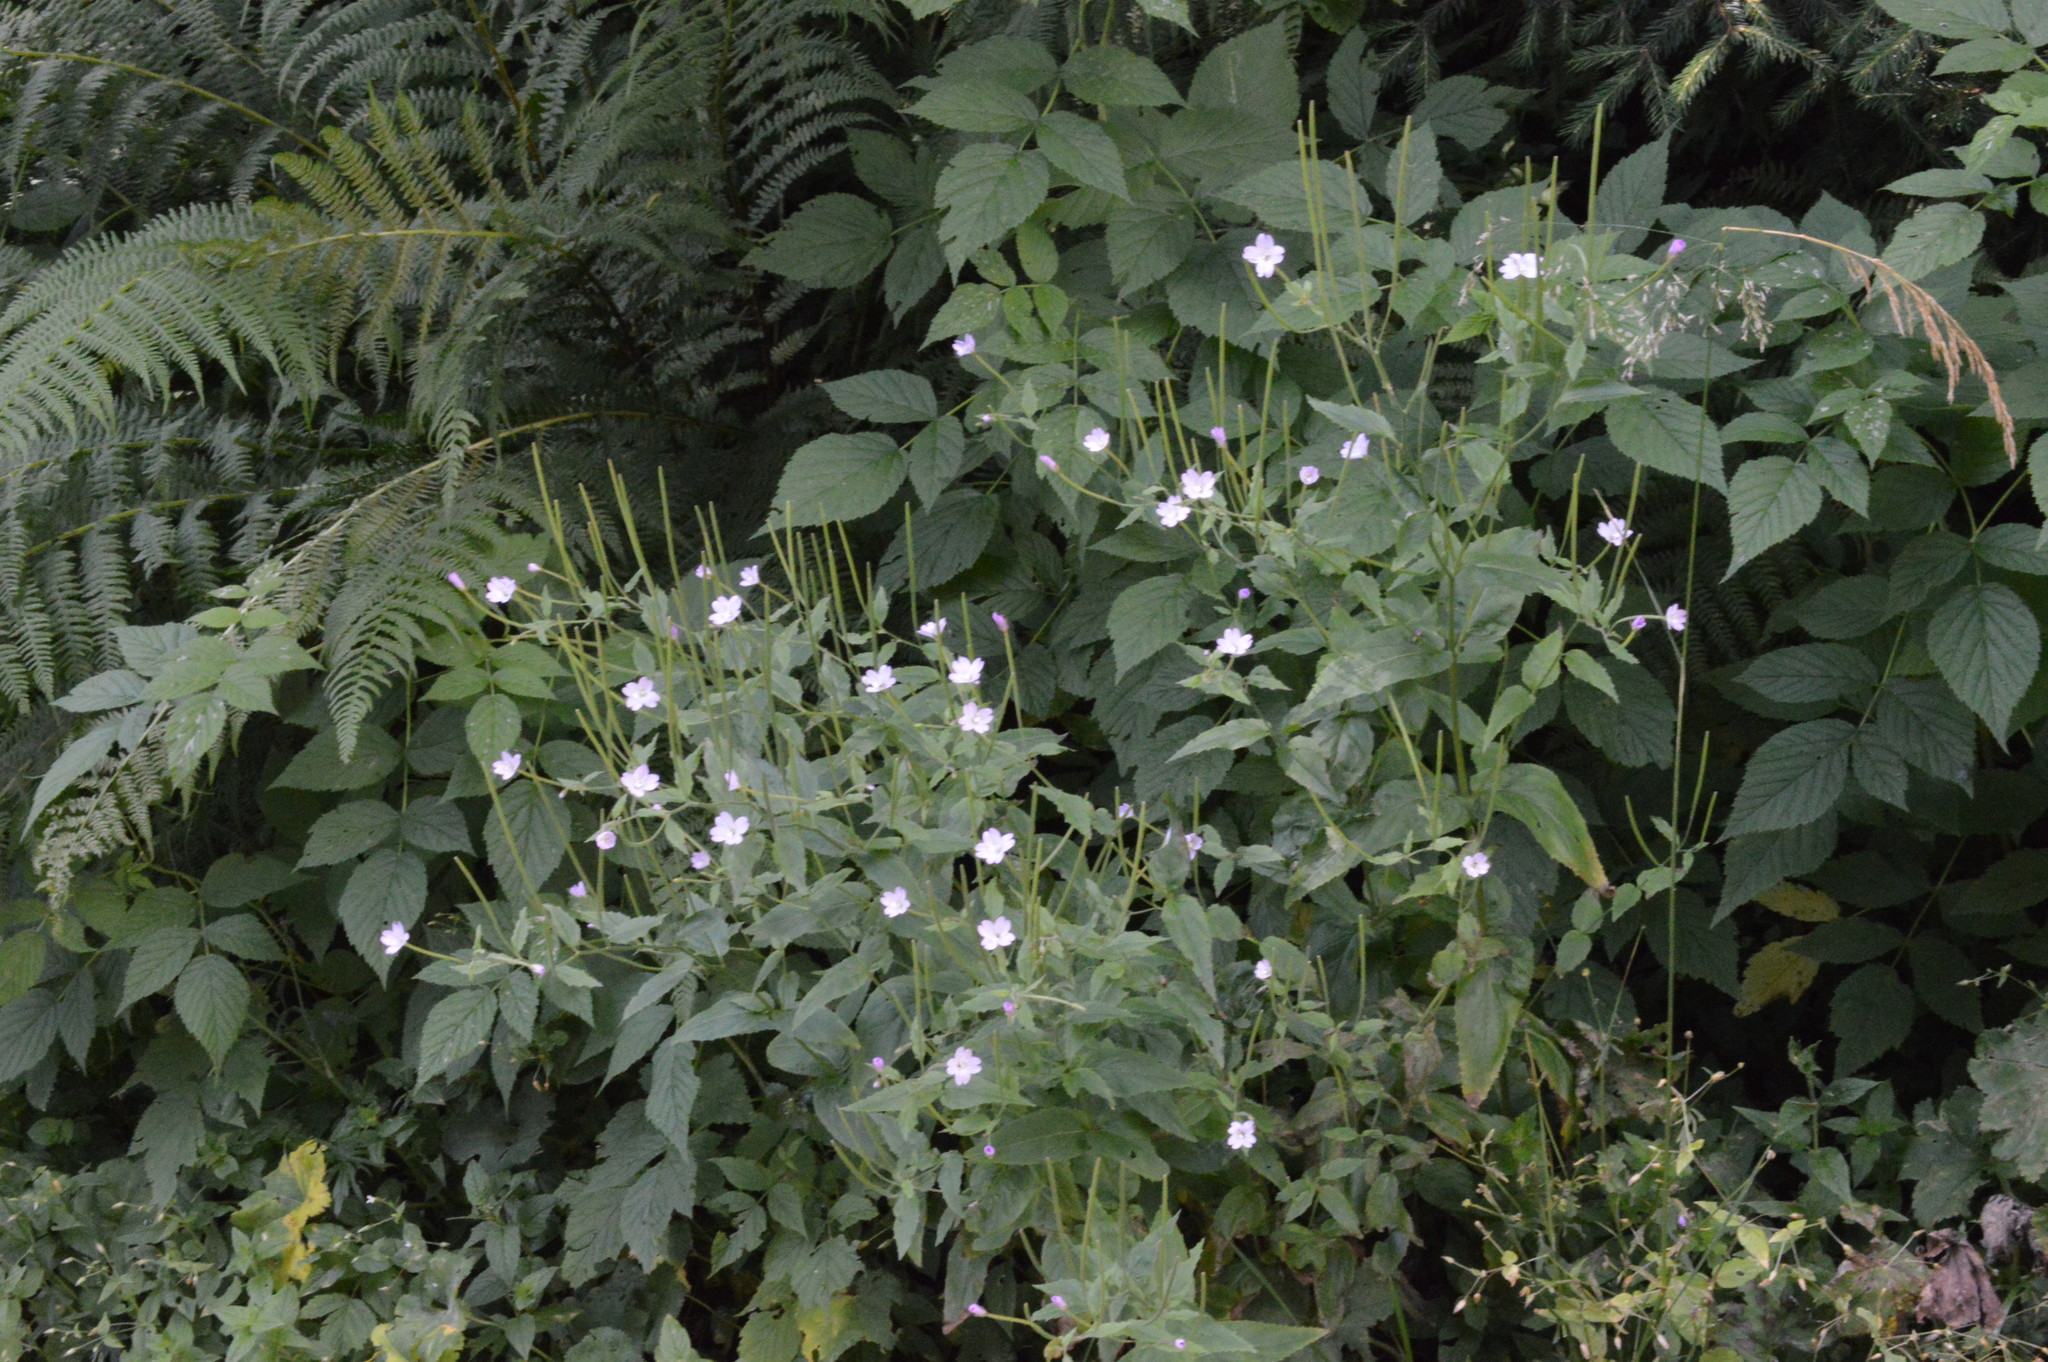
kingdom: Plantae
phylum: Tracheophyta
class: Magnoliopsida
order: Myrtales
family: Onagraceae
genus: Epilobium
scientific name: Epilobium montanum
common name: Broad-leaved willowherb
